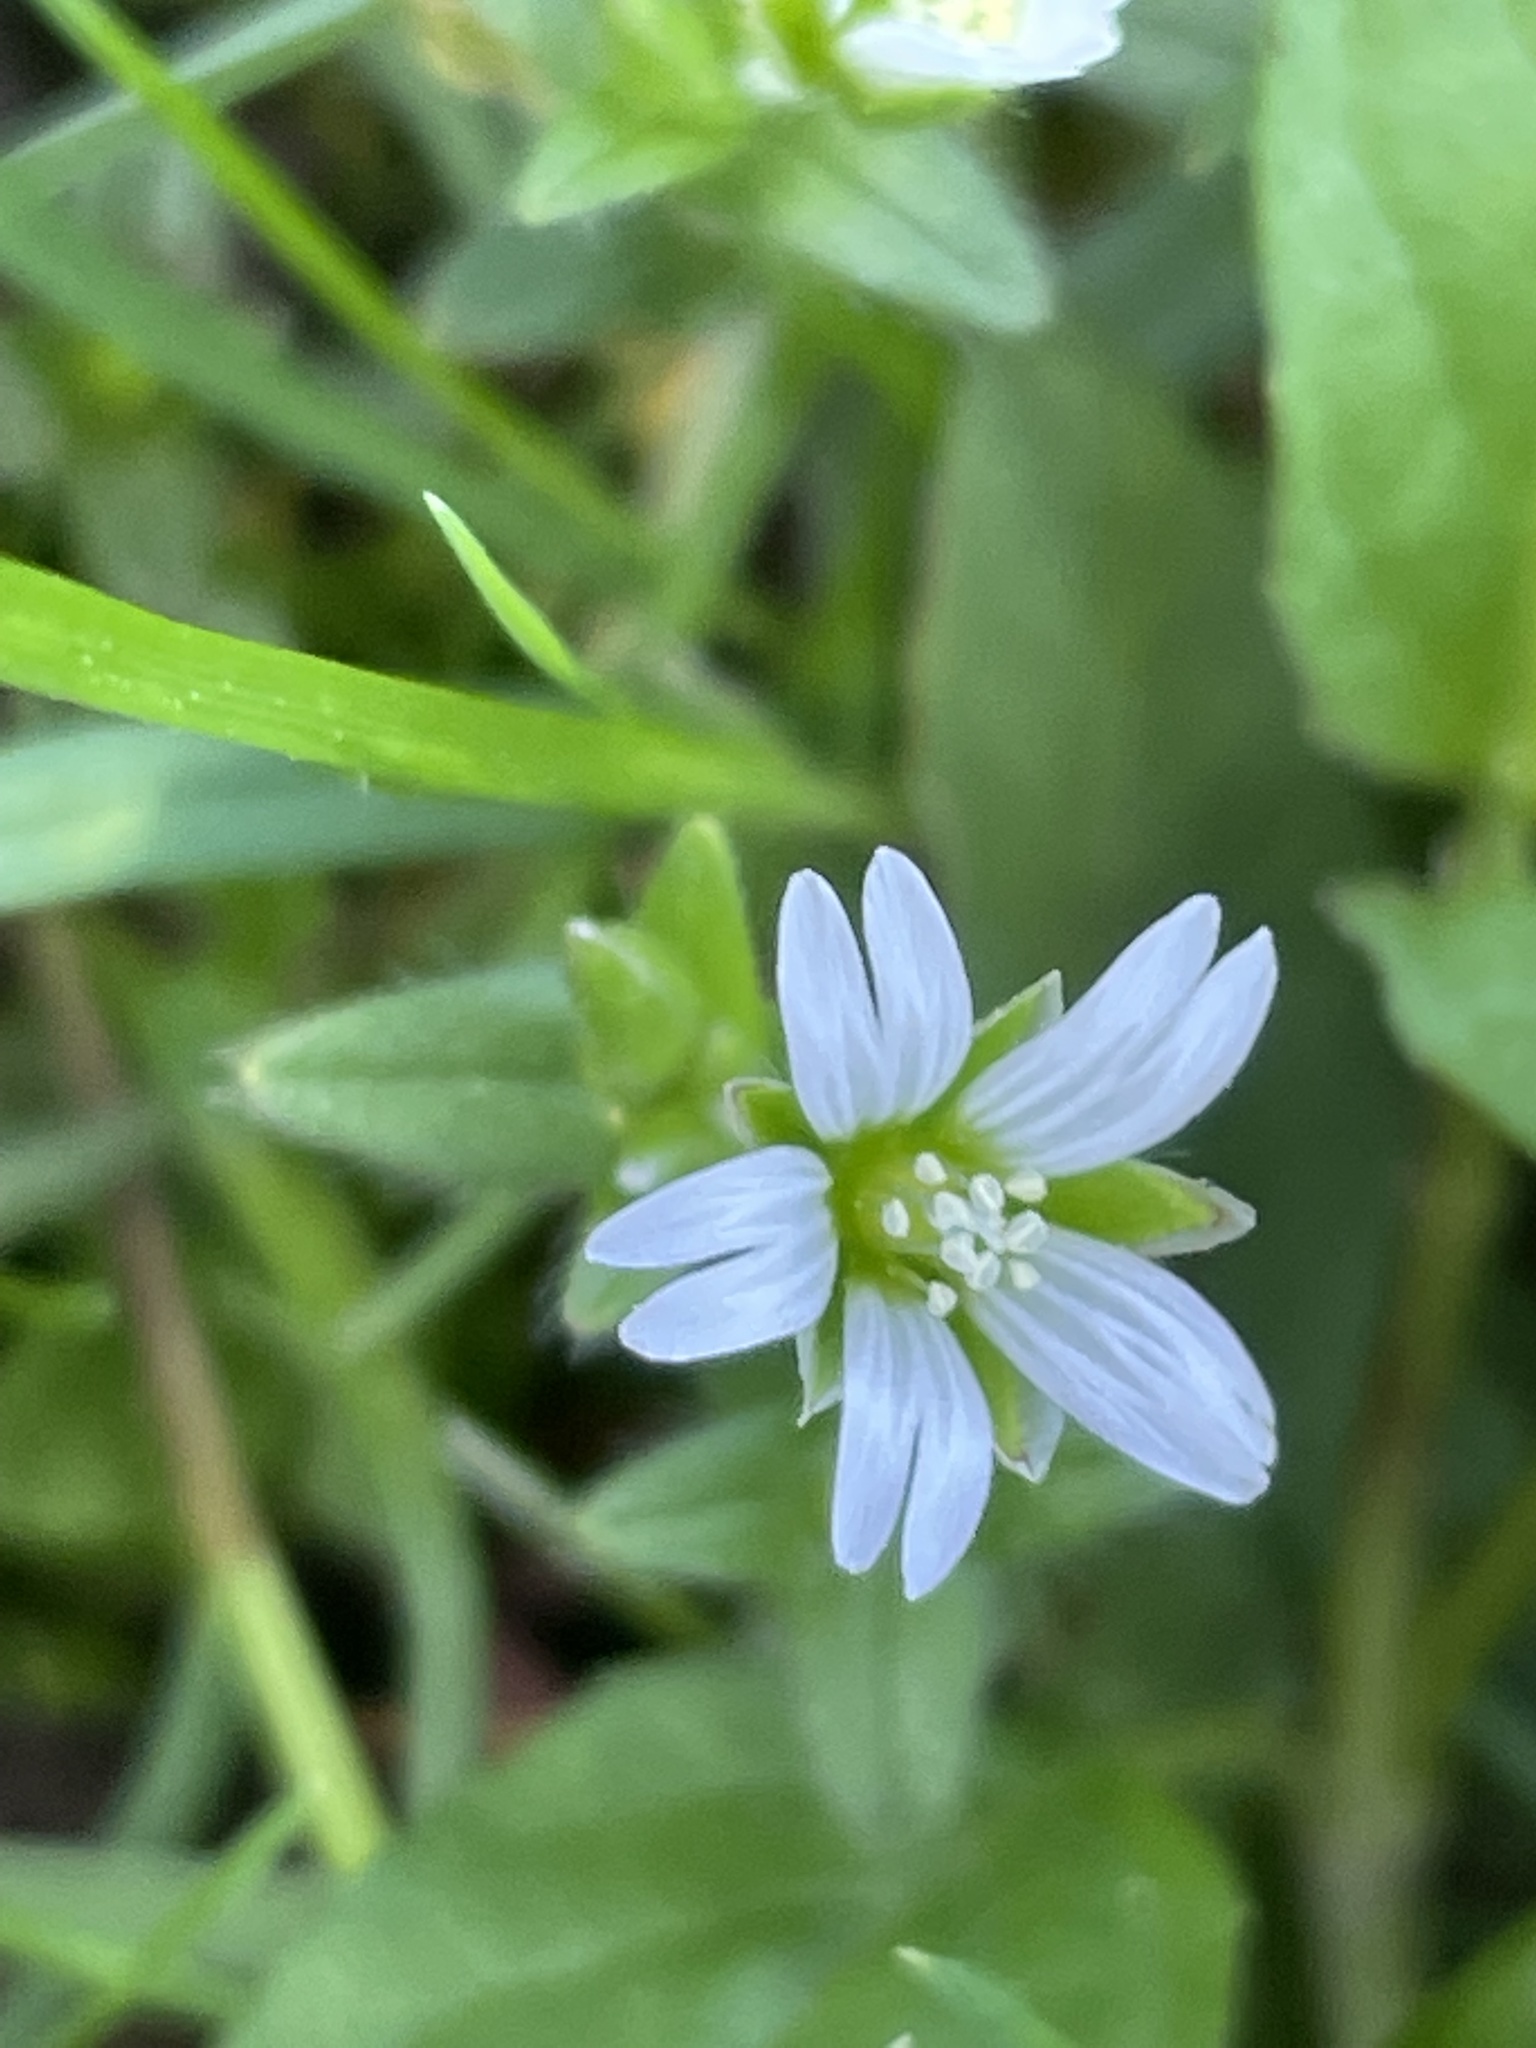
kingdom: Plantae
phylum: Tracheophyta
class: Magnoliopsida
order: Caryophyllales
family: Caryophyllaceae
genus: Cerastium
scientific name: Cerastium fontanum
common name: Common mouse-ear
